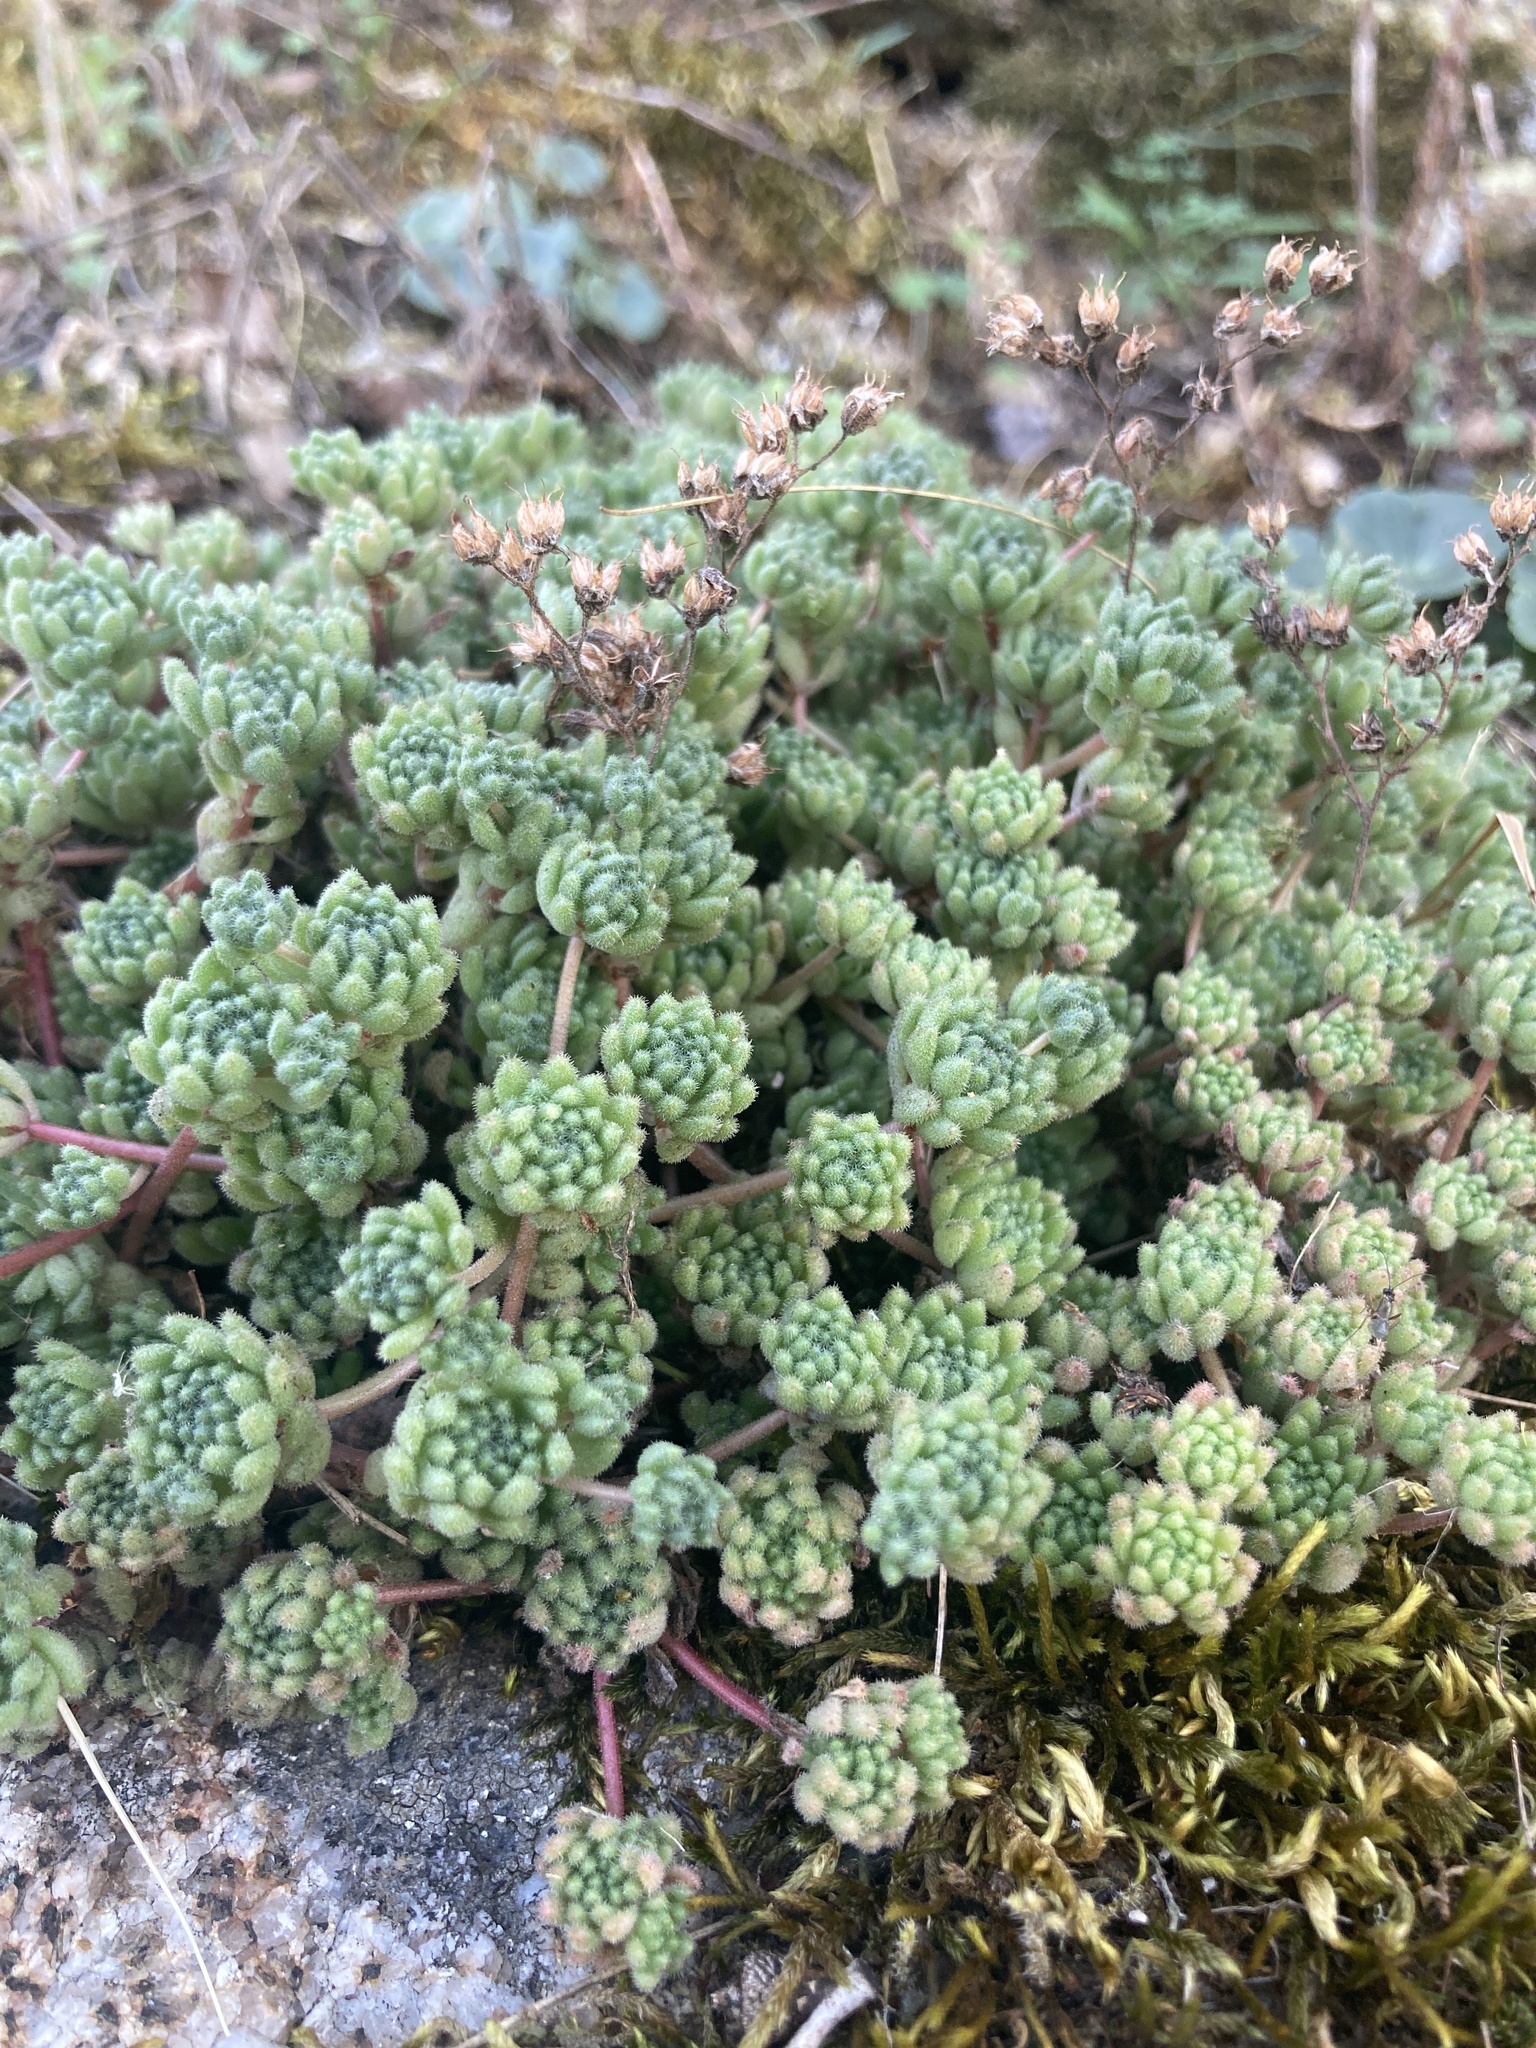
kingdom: Plantae
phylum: Tracheophyta
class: Magnoliopsida
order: Saxifragales
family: Crassulaceae
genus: Sedum
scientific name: Sedum hirsutum
